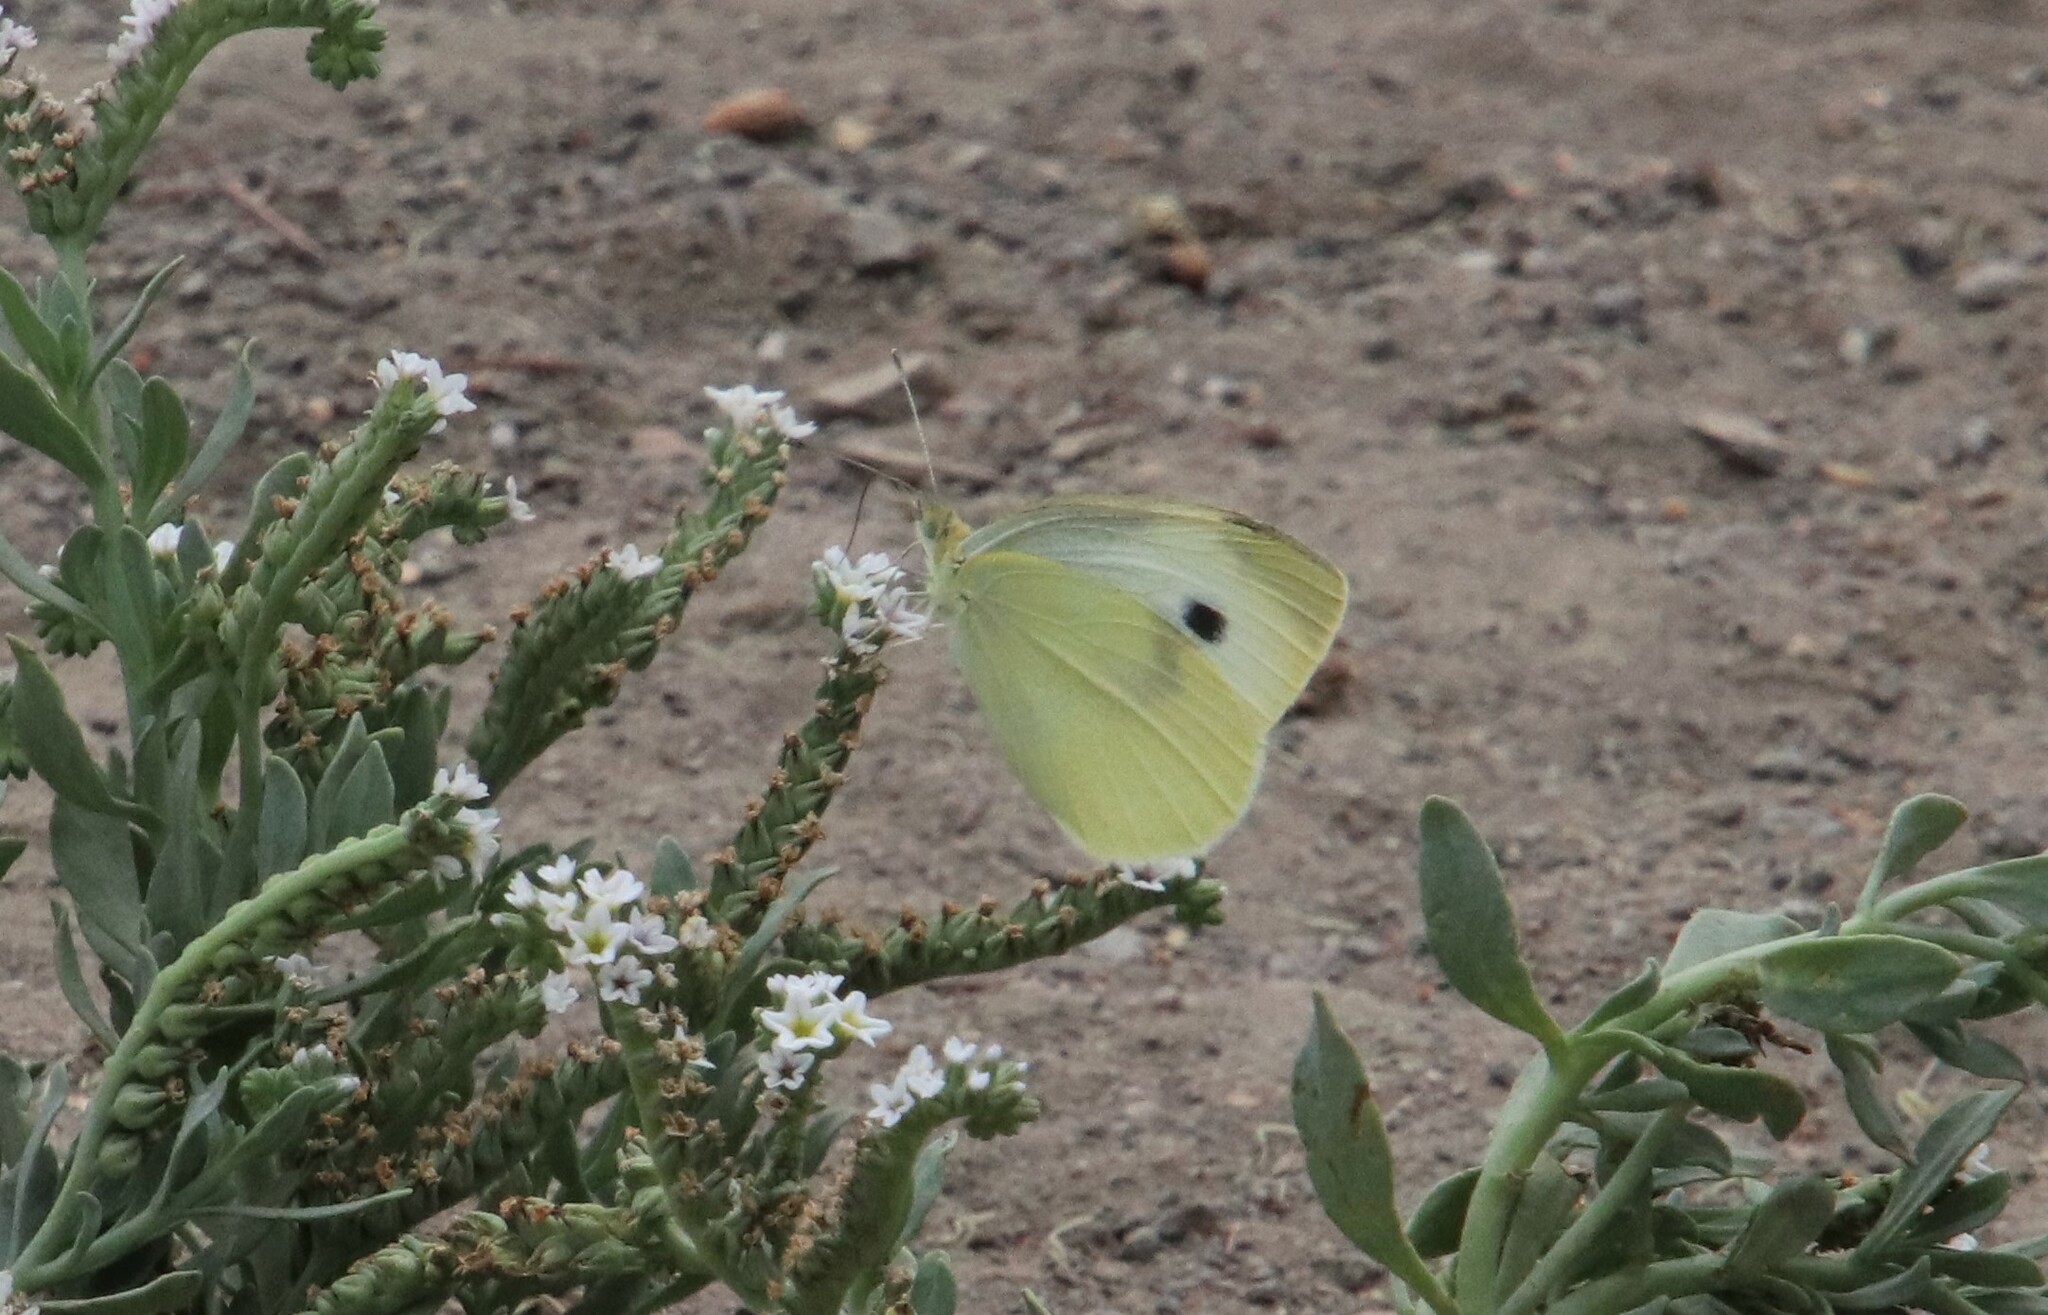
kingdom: Animalia
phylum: Arthropoda
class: Insecta
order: Lepidoptera
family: Pieridae
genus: Pieris
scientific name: Pieris rapae
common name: Small white
